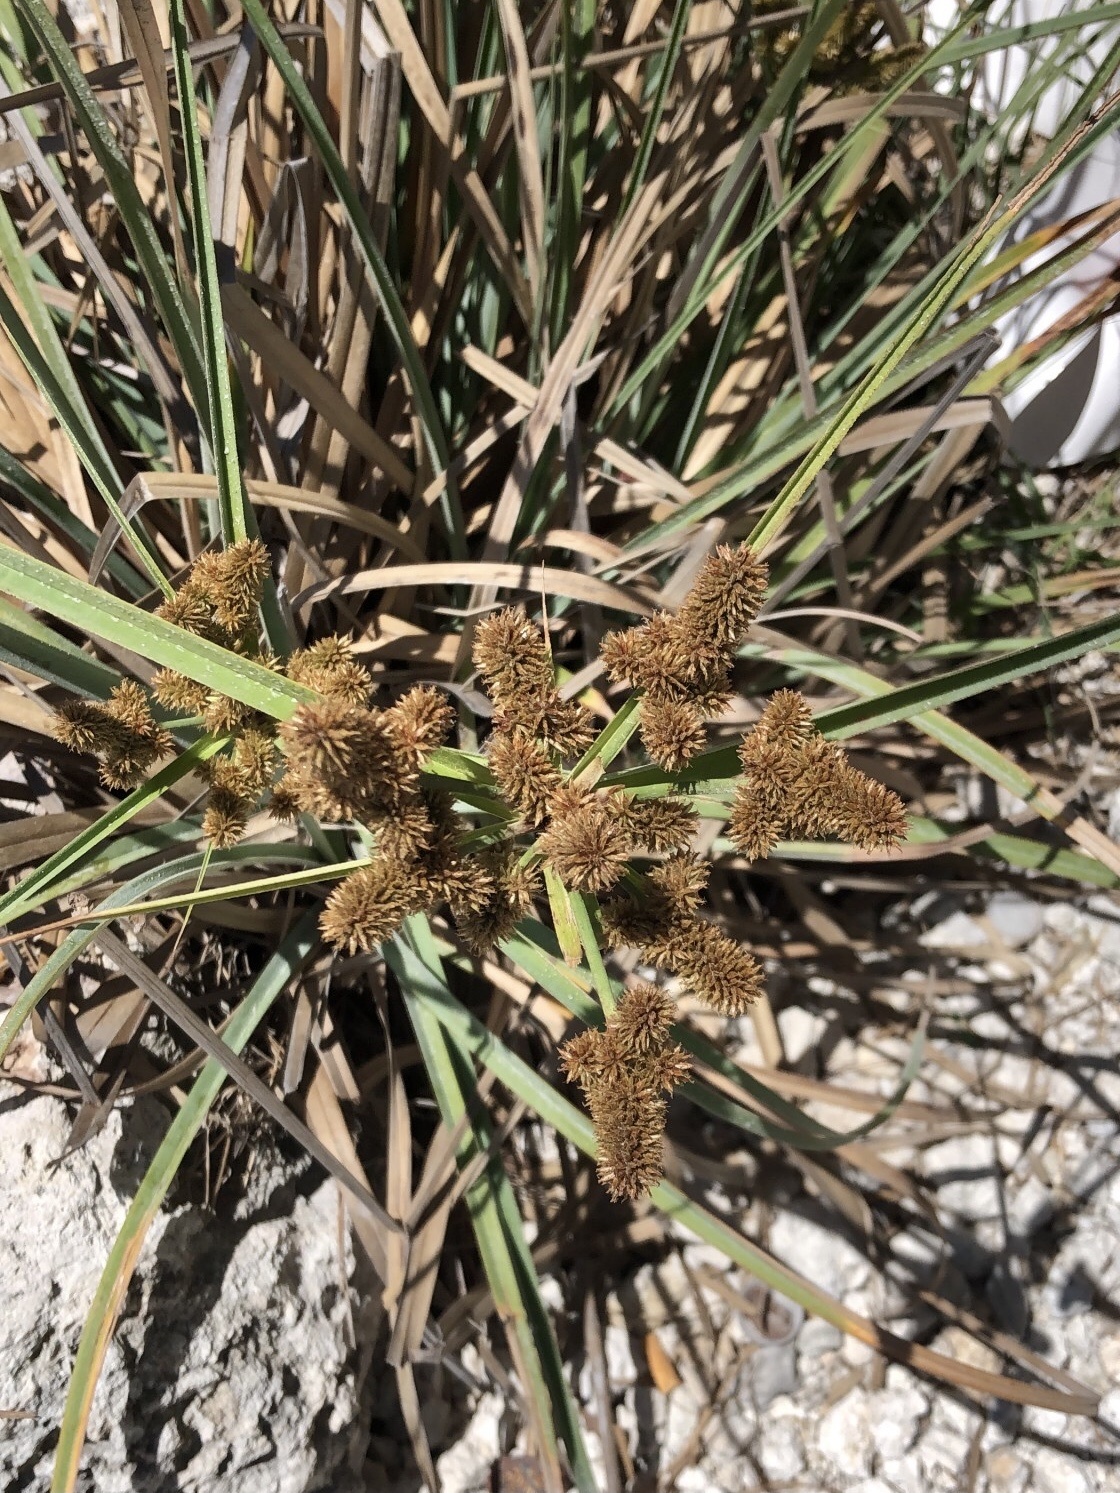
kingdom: Plantae
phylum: Tracheophyta
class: Liliopsida
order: Poales
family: Cyperaceae
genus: Cyperus
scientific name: Cyperus ligularis
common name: Swamp flat sedge
